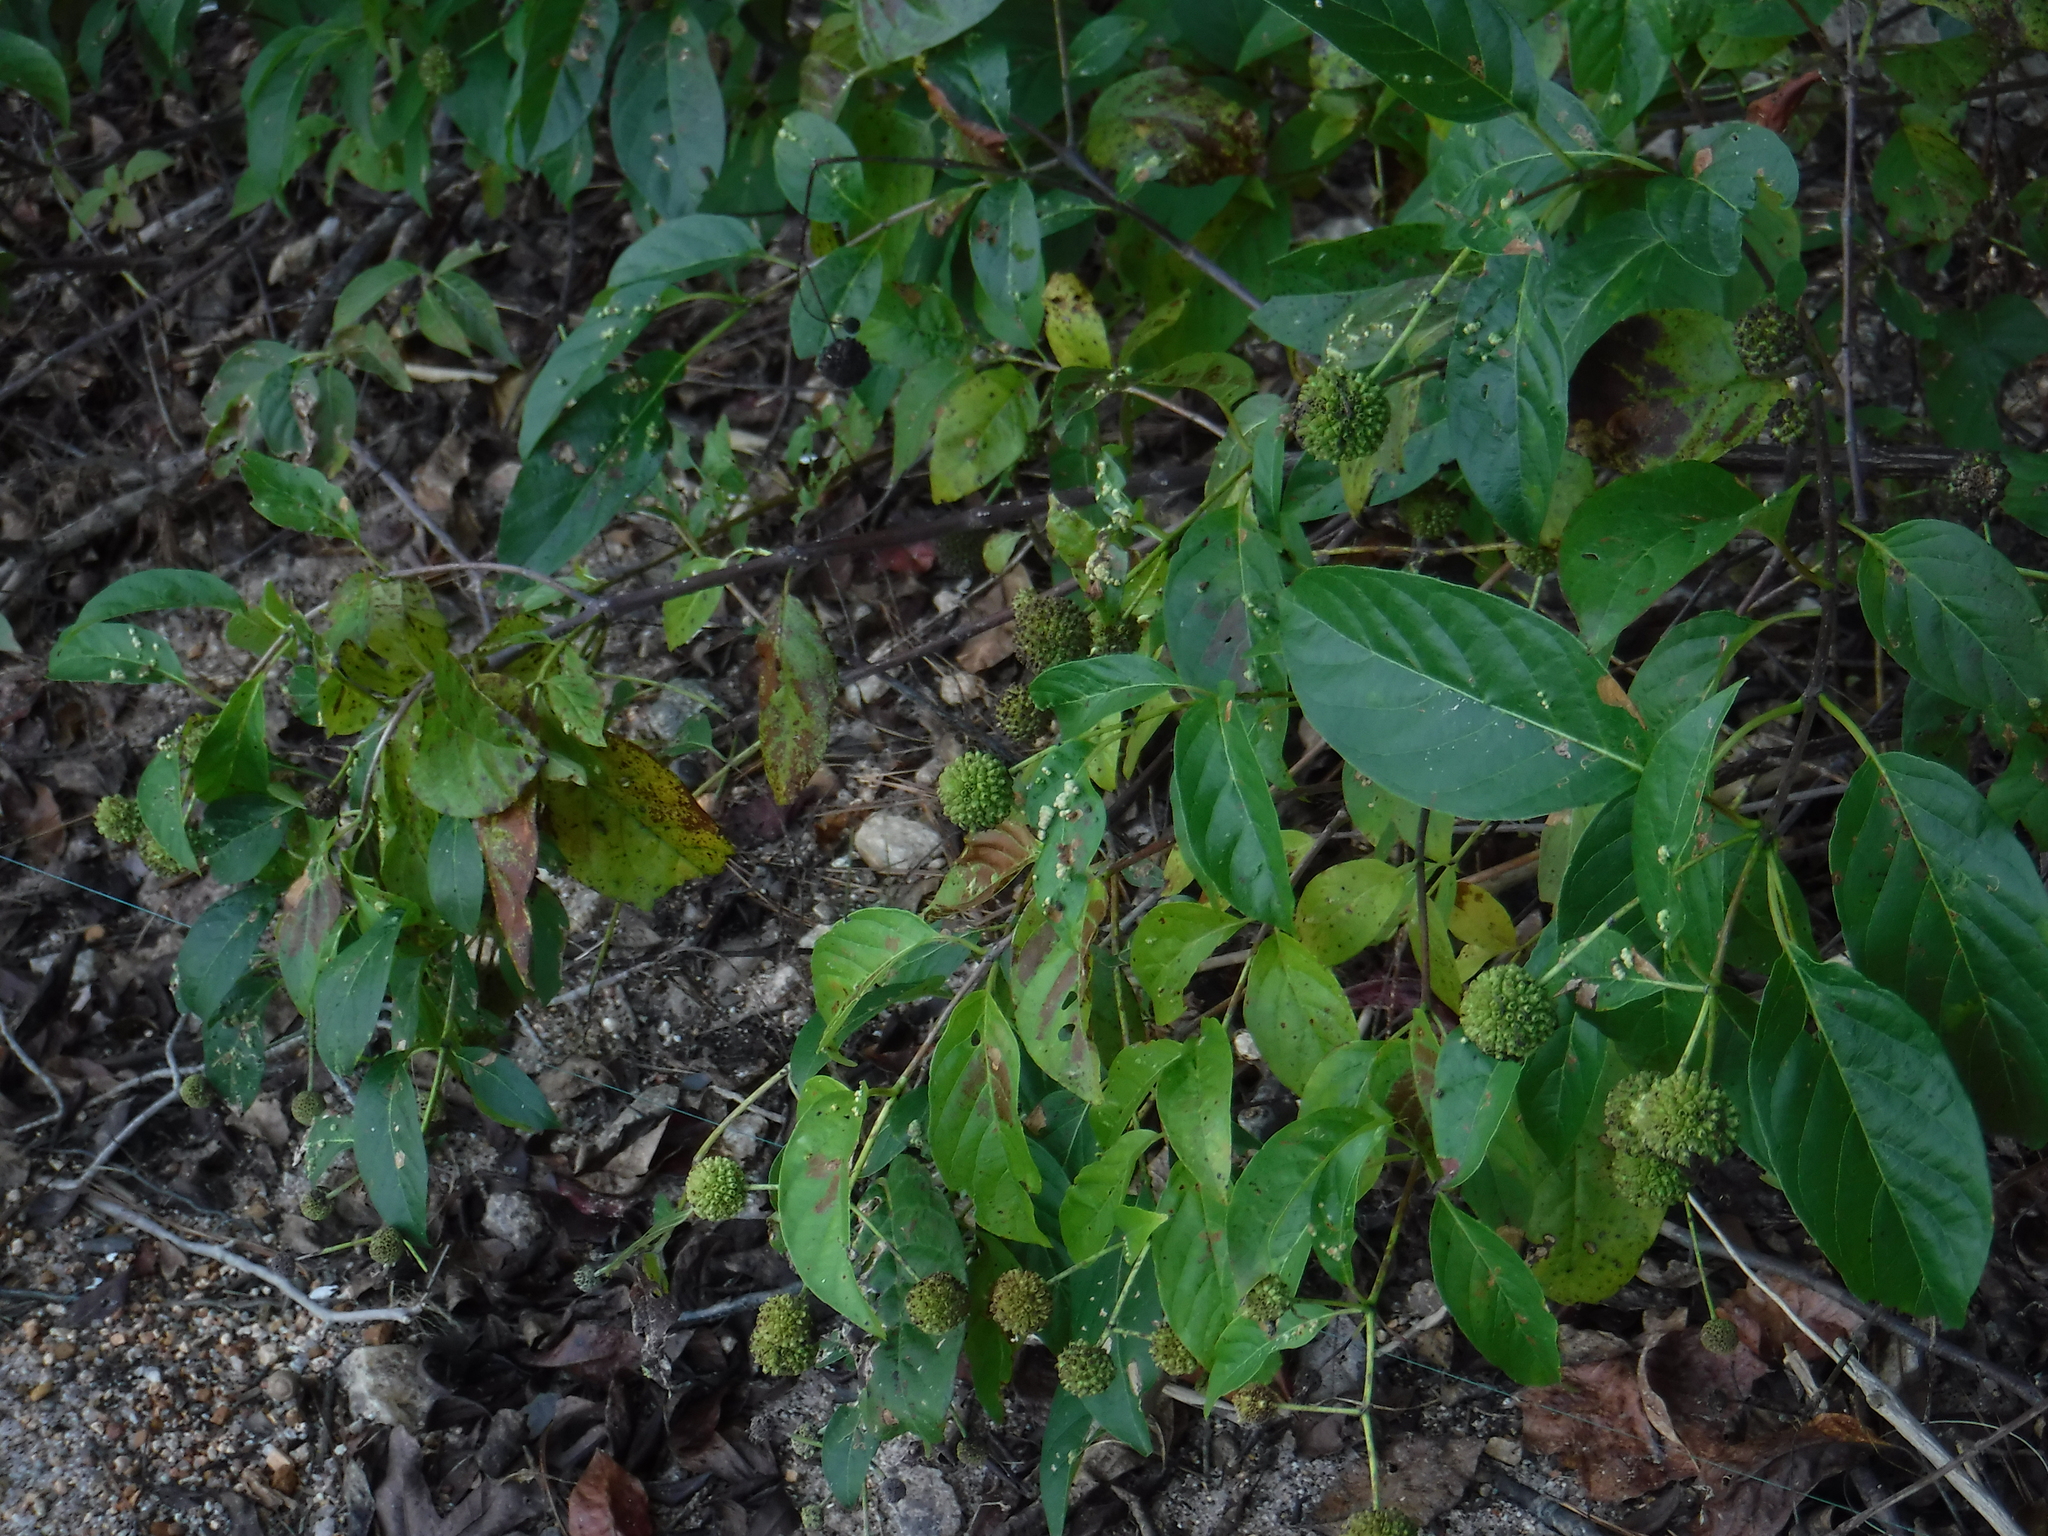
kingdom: Plantae
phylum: Tracheophyta
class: Magnoliopsida
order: Gentianales
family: Rubiaceae
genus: Cephalanthus
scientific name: Cephalanthus occidentalis
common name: Button-willow
